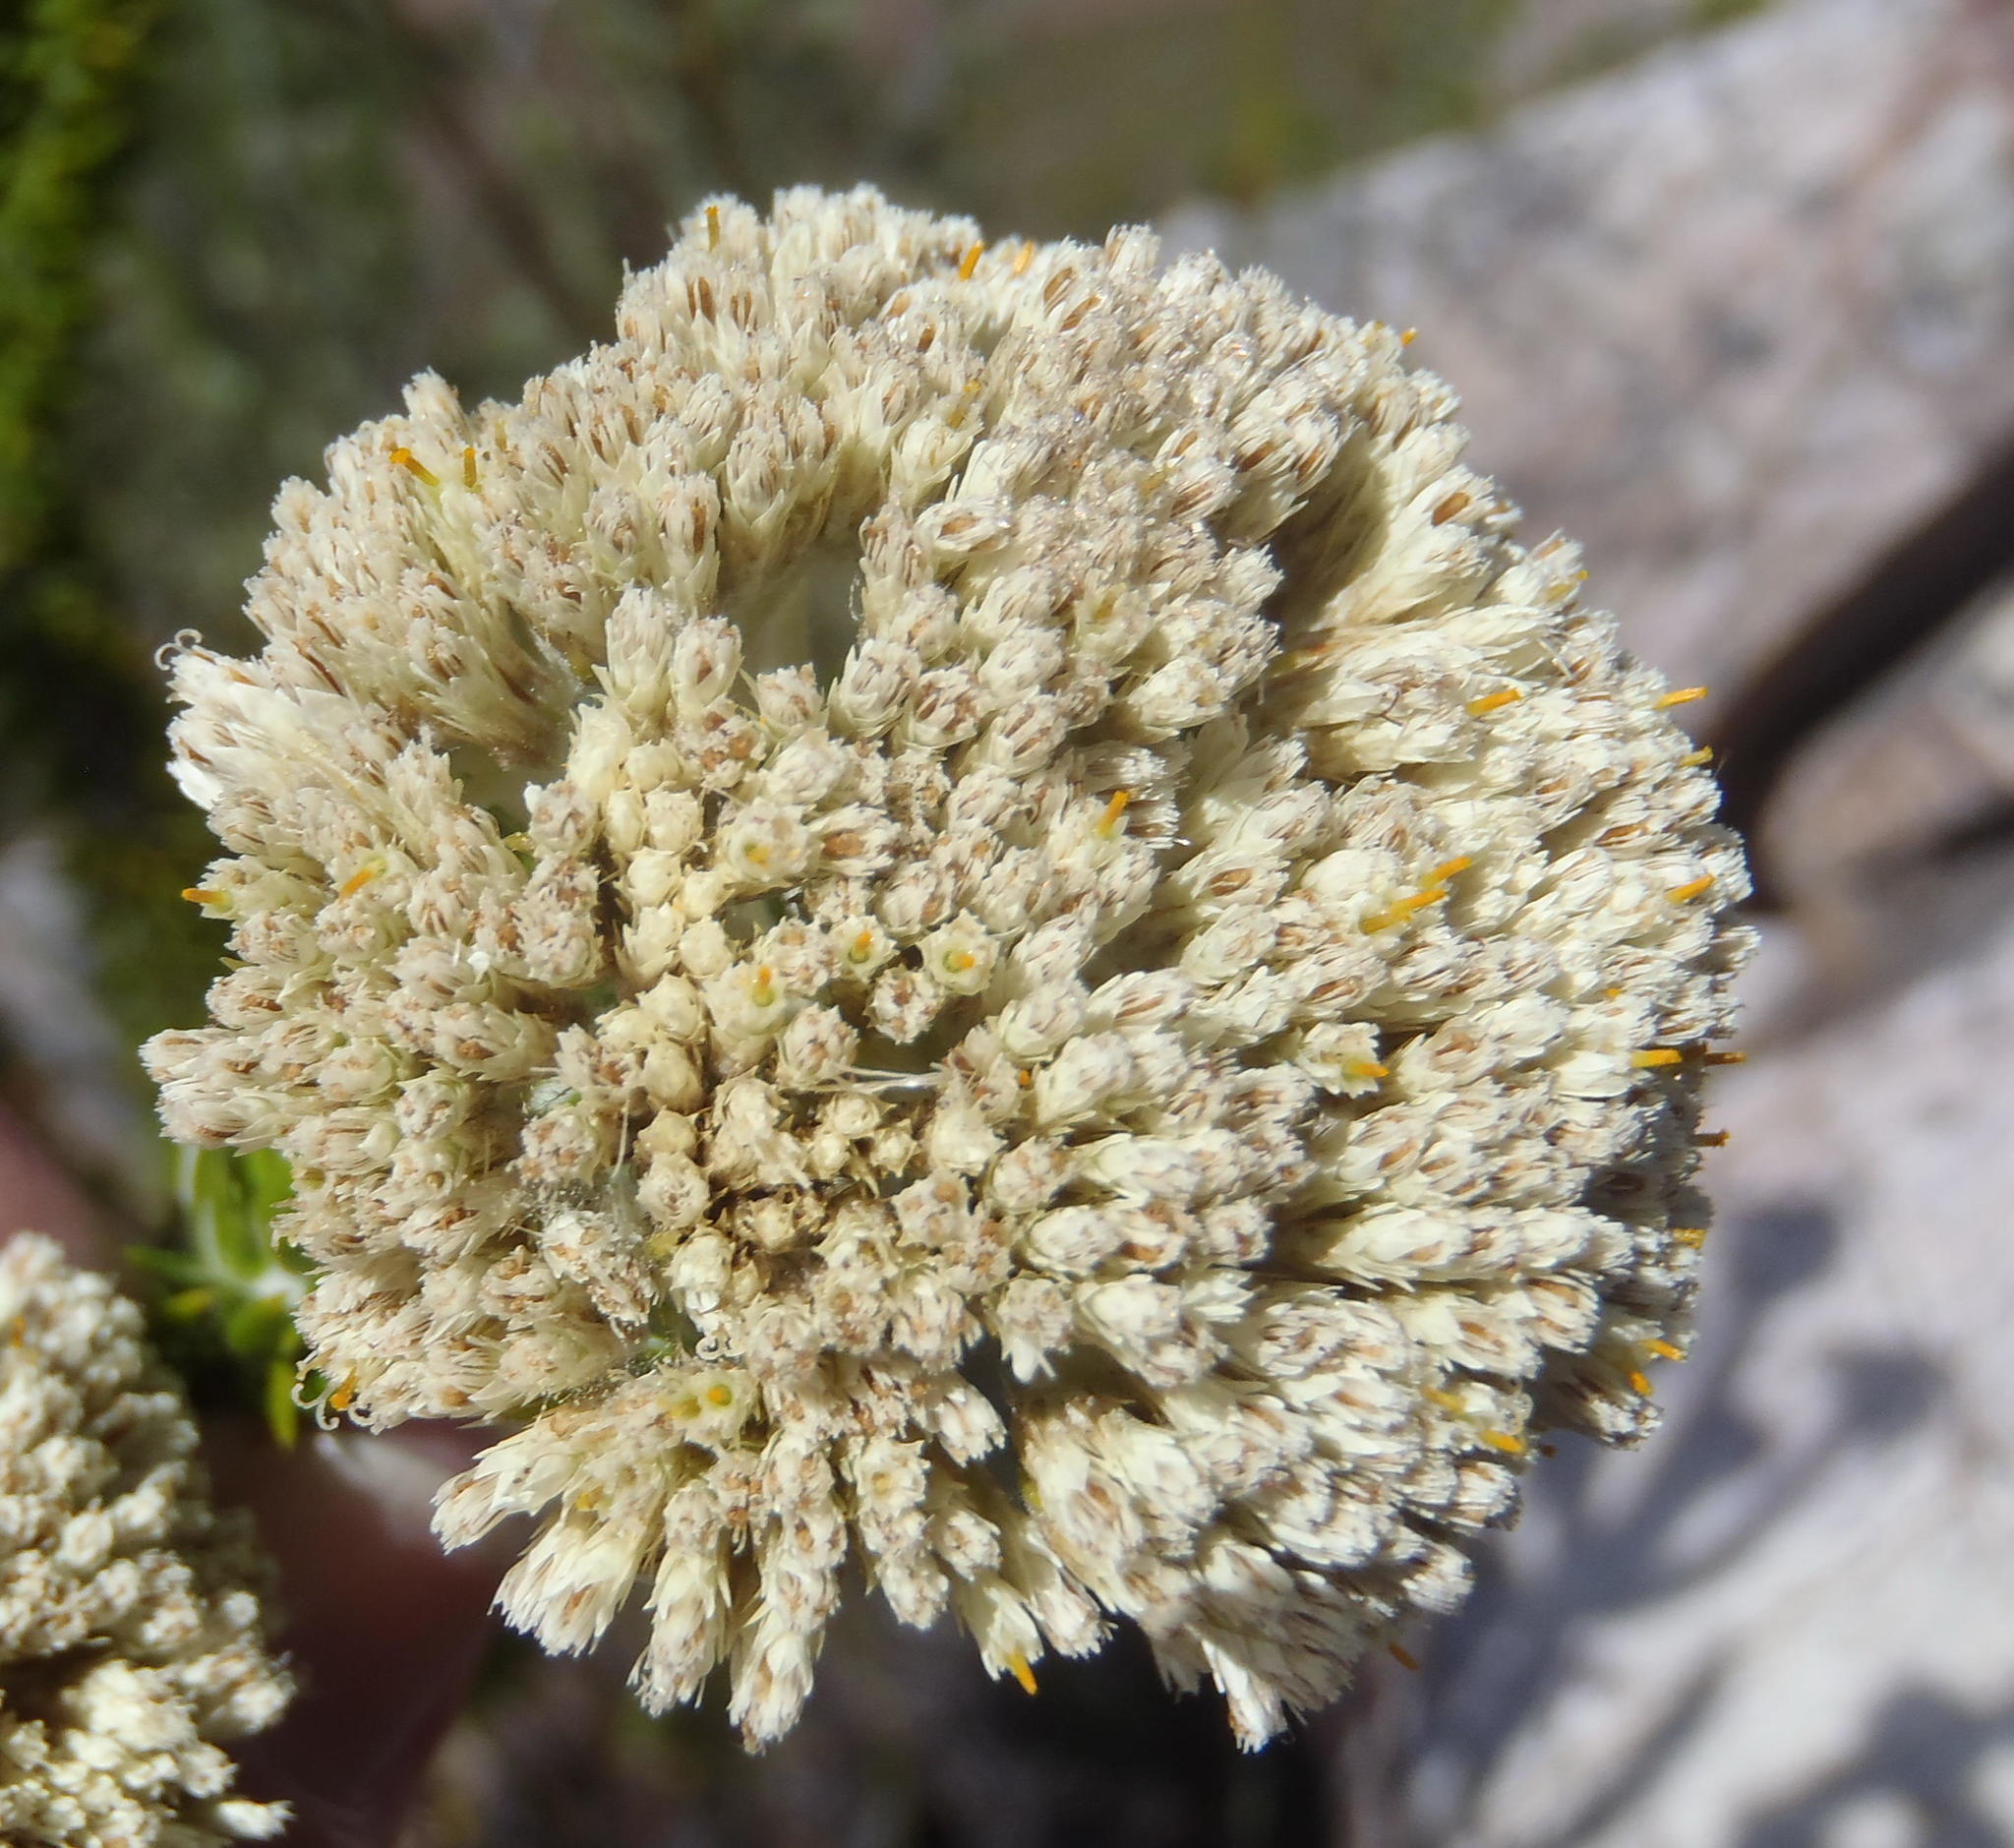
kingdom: Plantae
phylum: Tracheophyta
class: Magnoliopsida
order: Asterales
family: Asteraceae
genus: Metalasia
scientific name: Metalasia acuta
